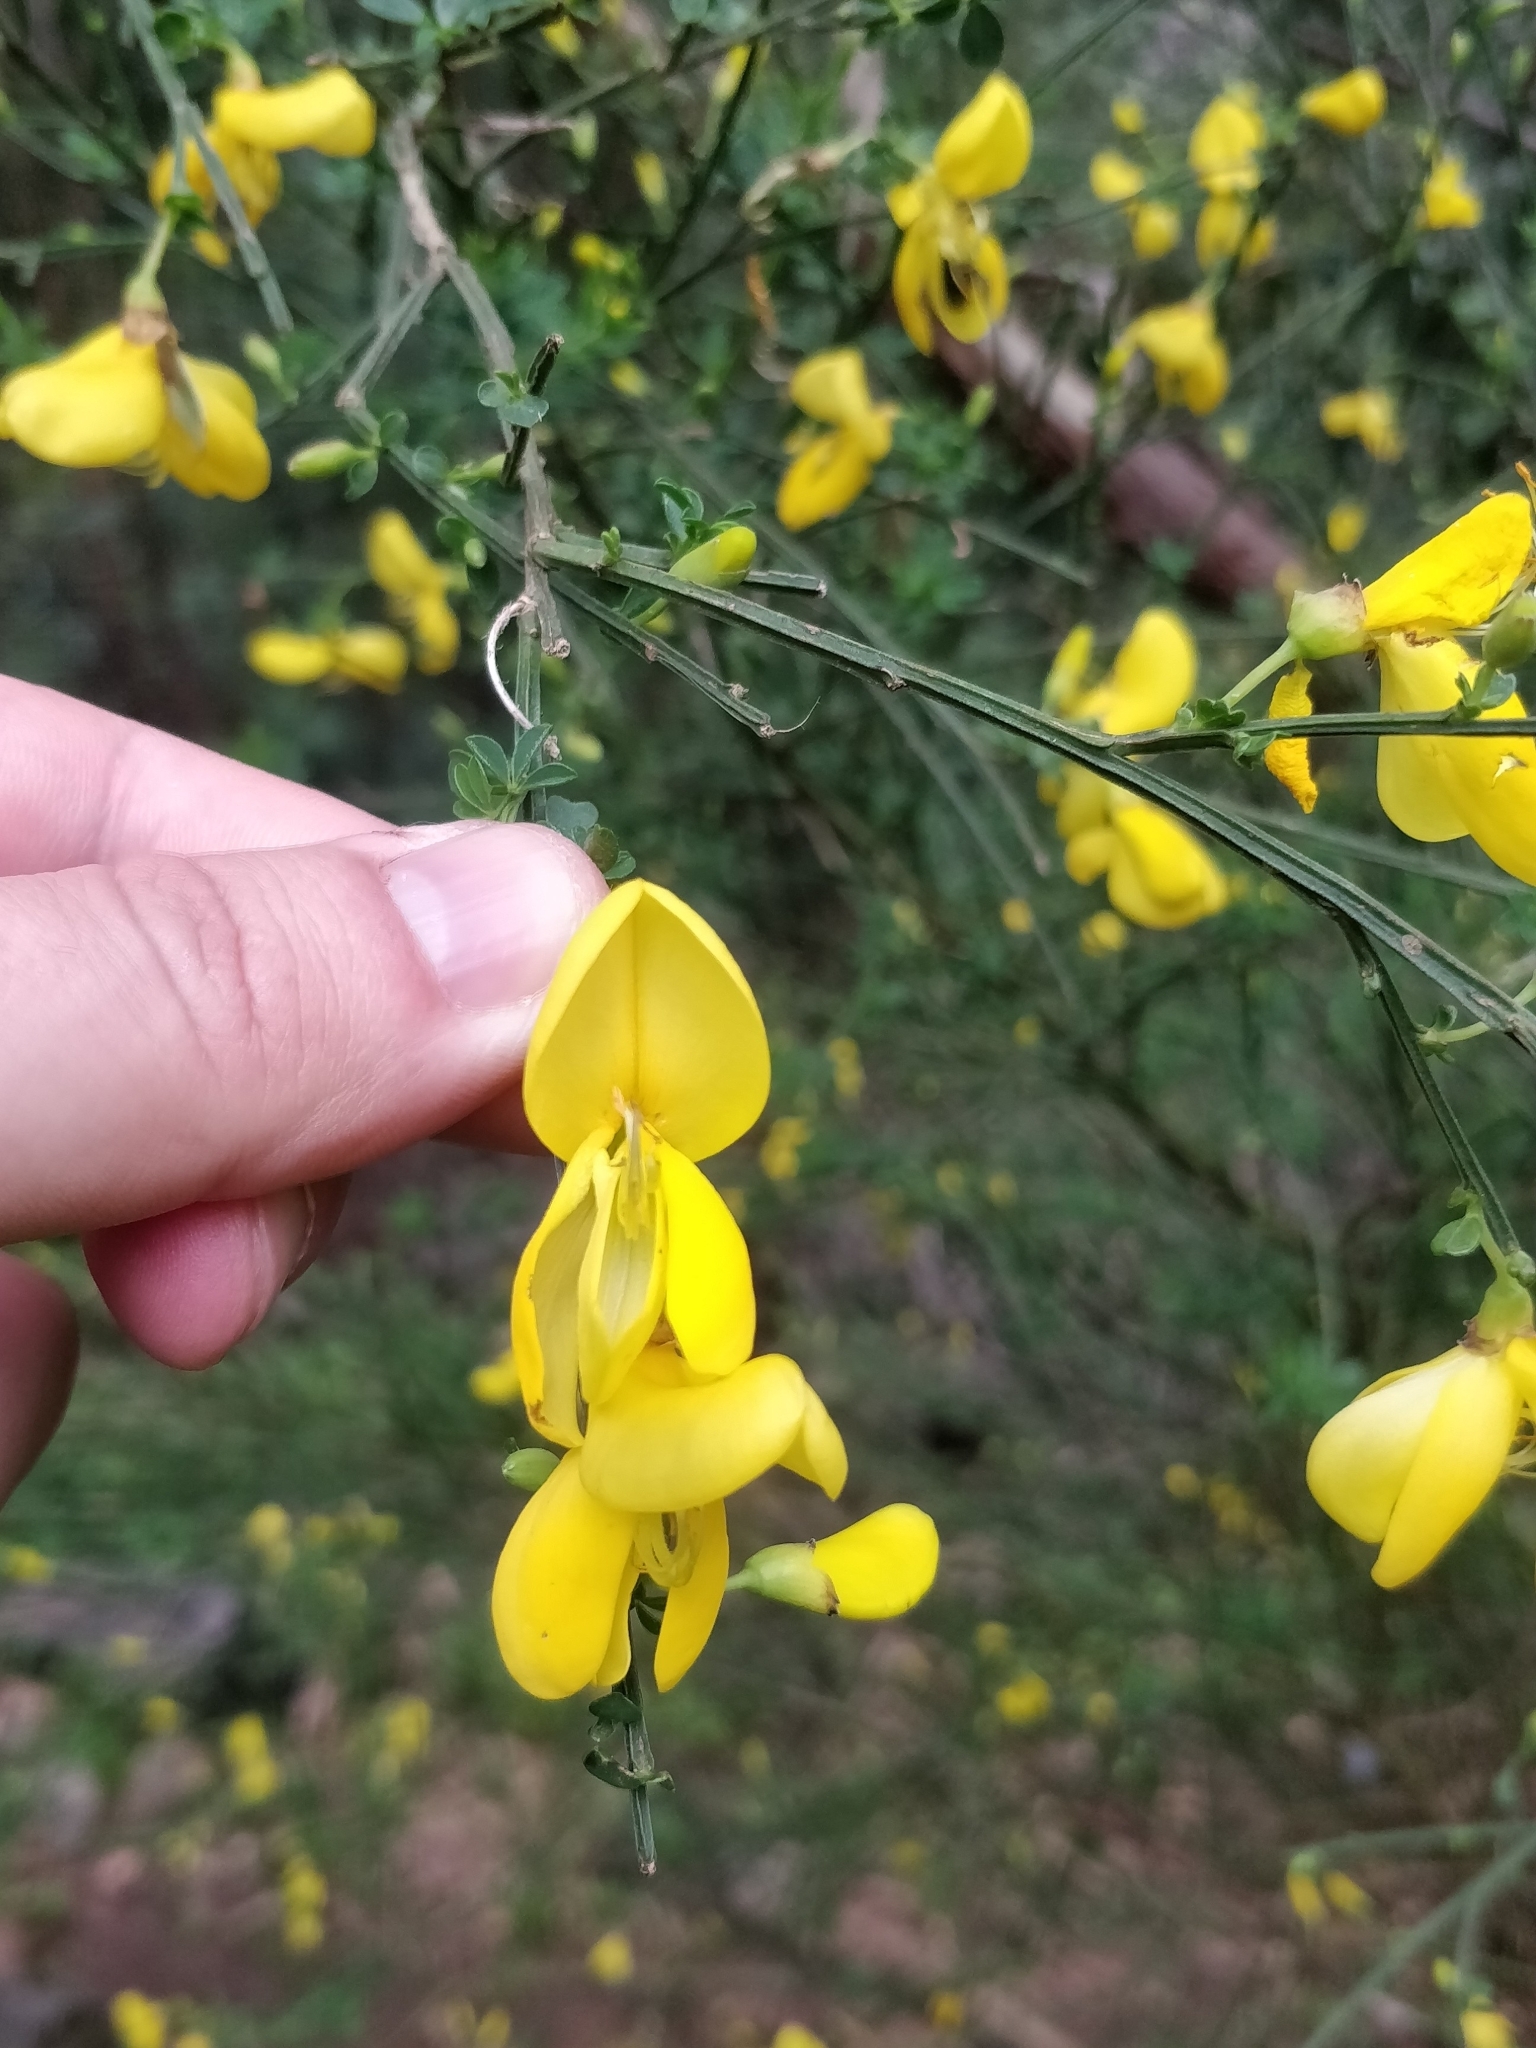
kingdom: Plantae
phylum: Tracheophyta
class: Magnoliopsida
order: Fabales
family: Fabaceae
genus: Cytisus
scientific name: Cytisus scoparius
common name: Scotch broom
